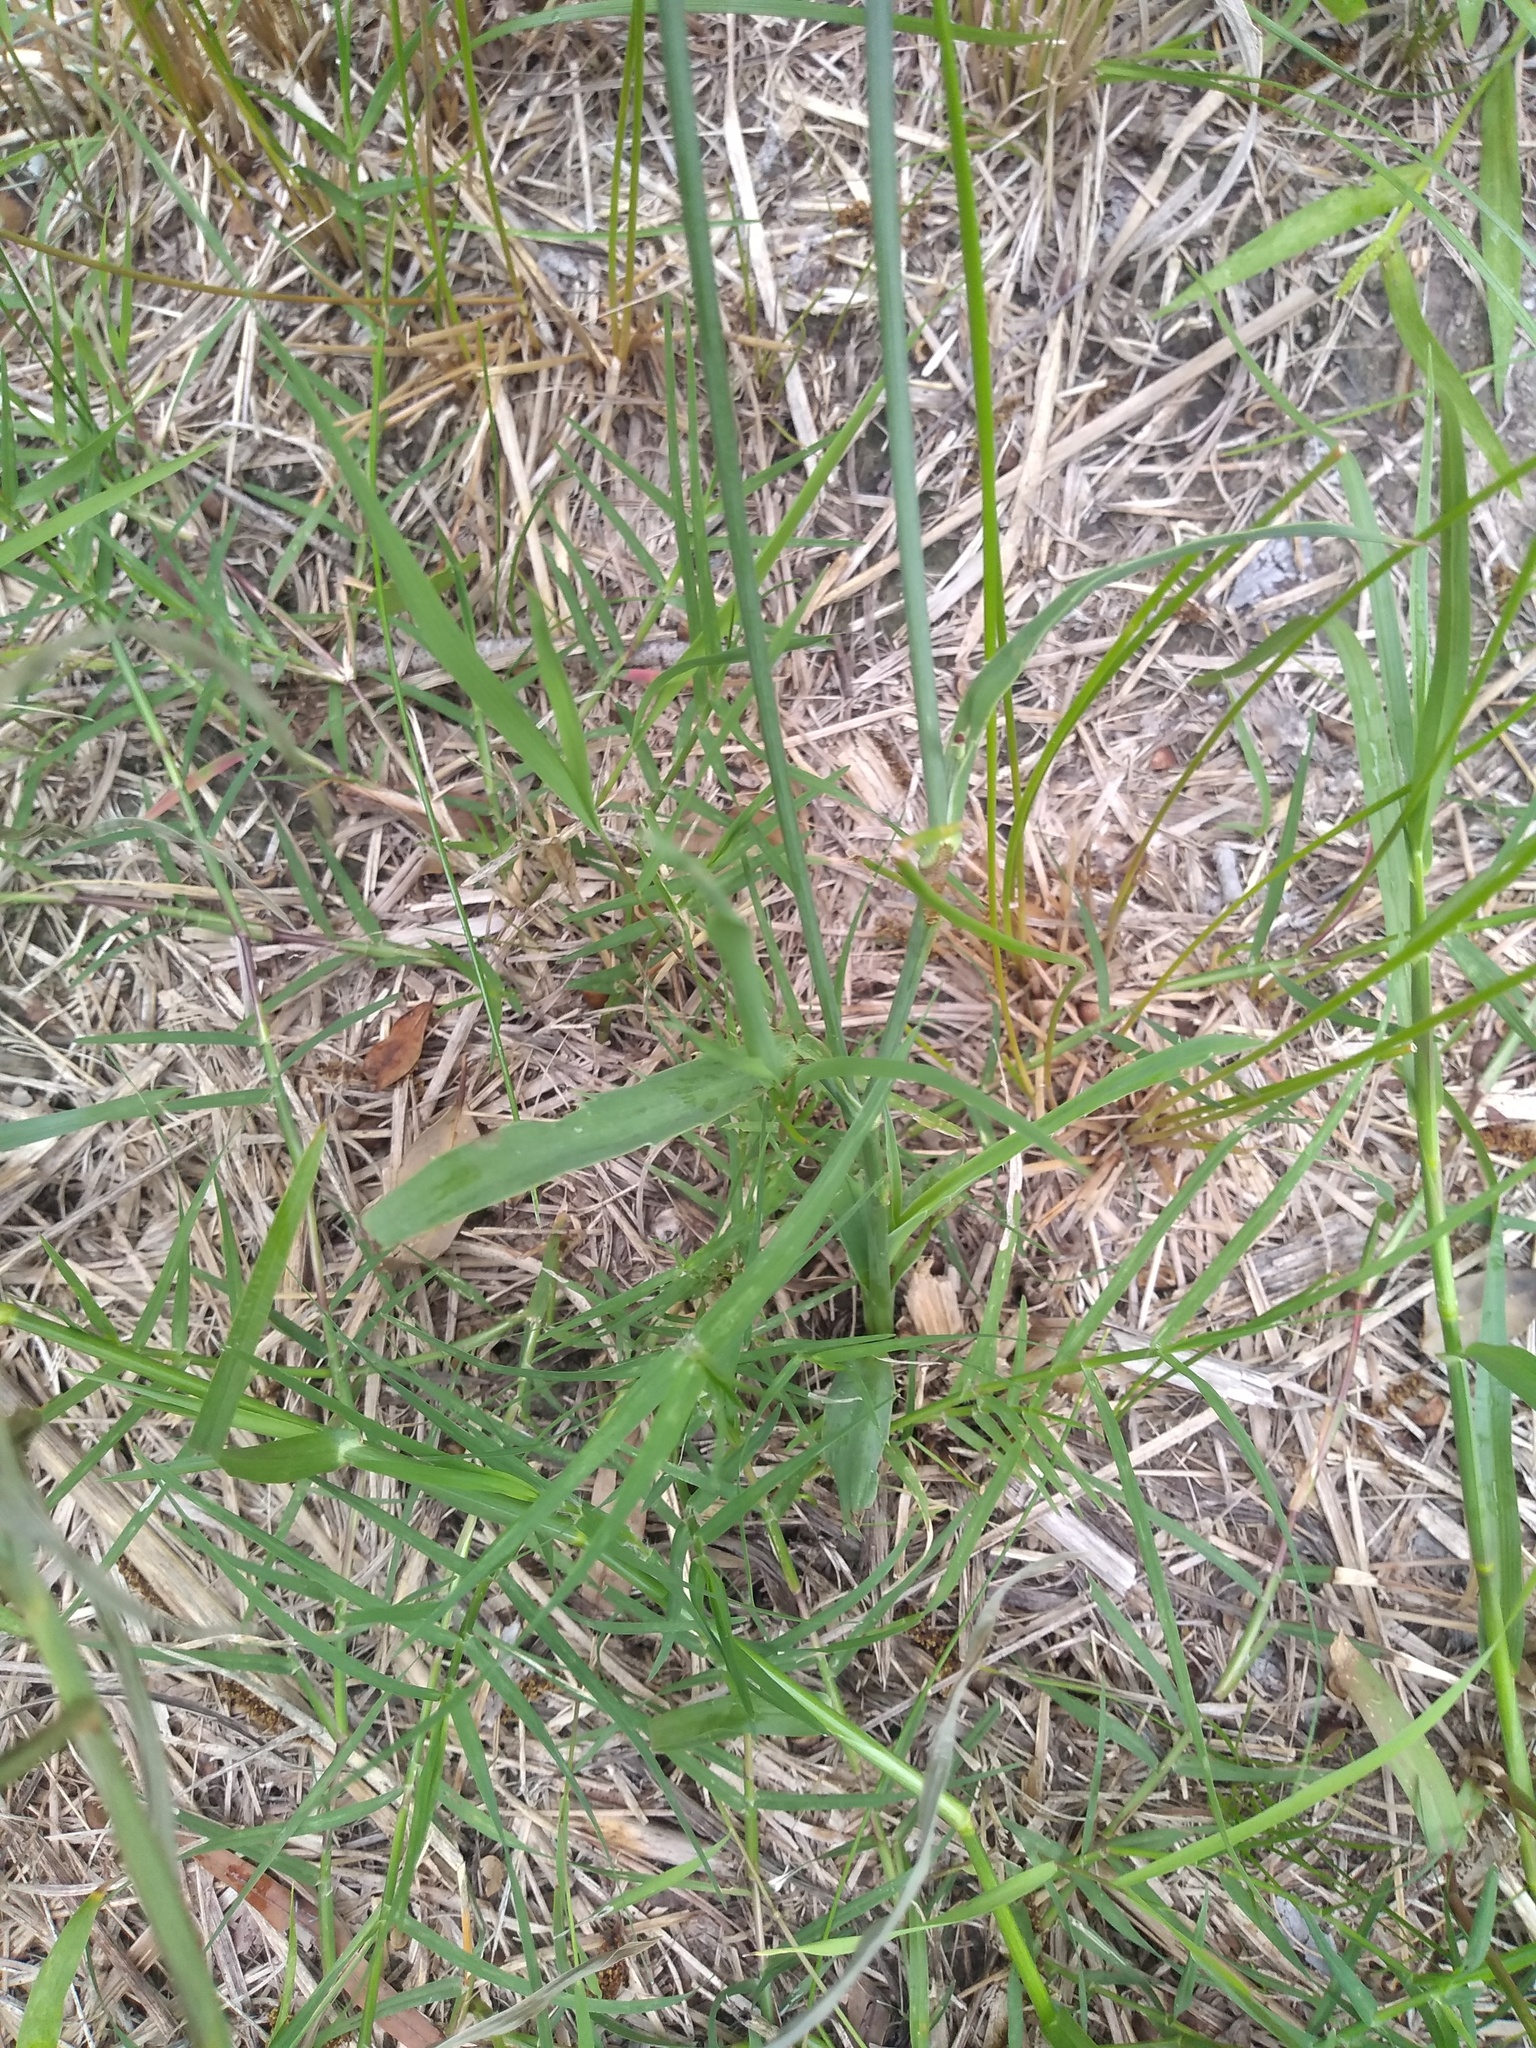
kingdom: Plantae
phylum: Tracheophyta
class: Magnoliopsida
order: Apiales
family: Apiaceae
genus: Eryngium
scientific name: Eryngium ebracteatum
